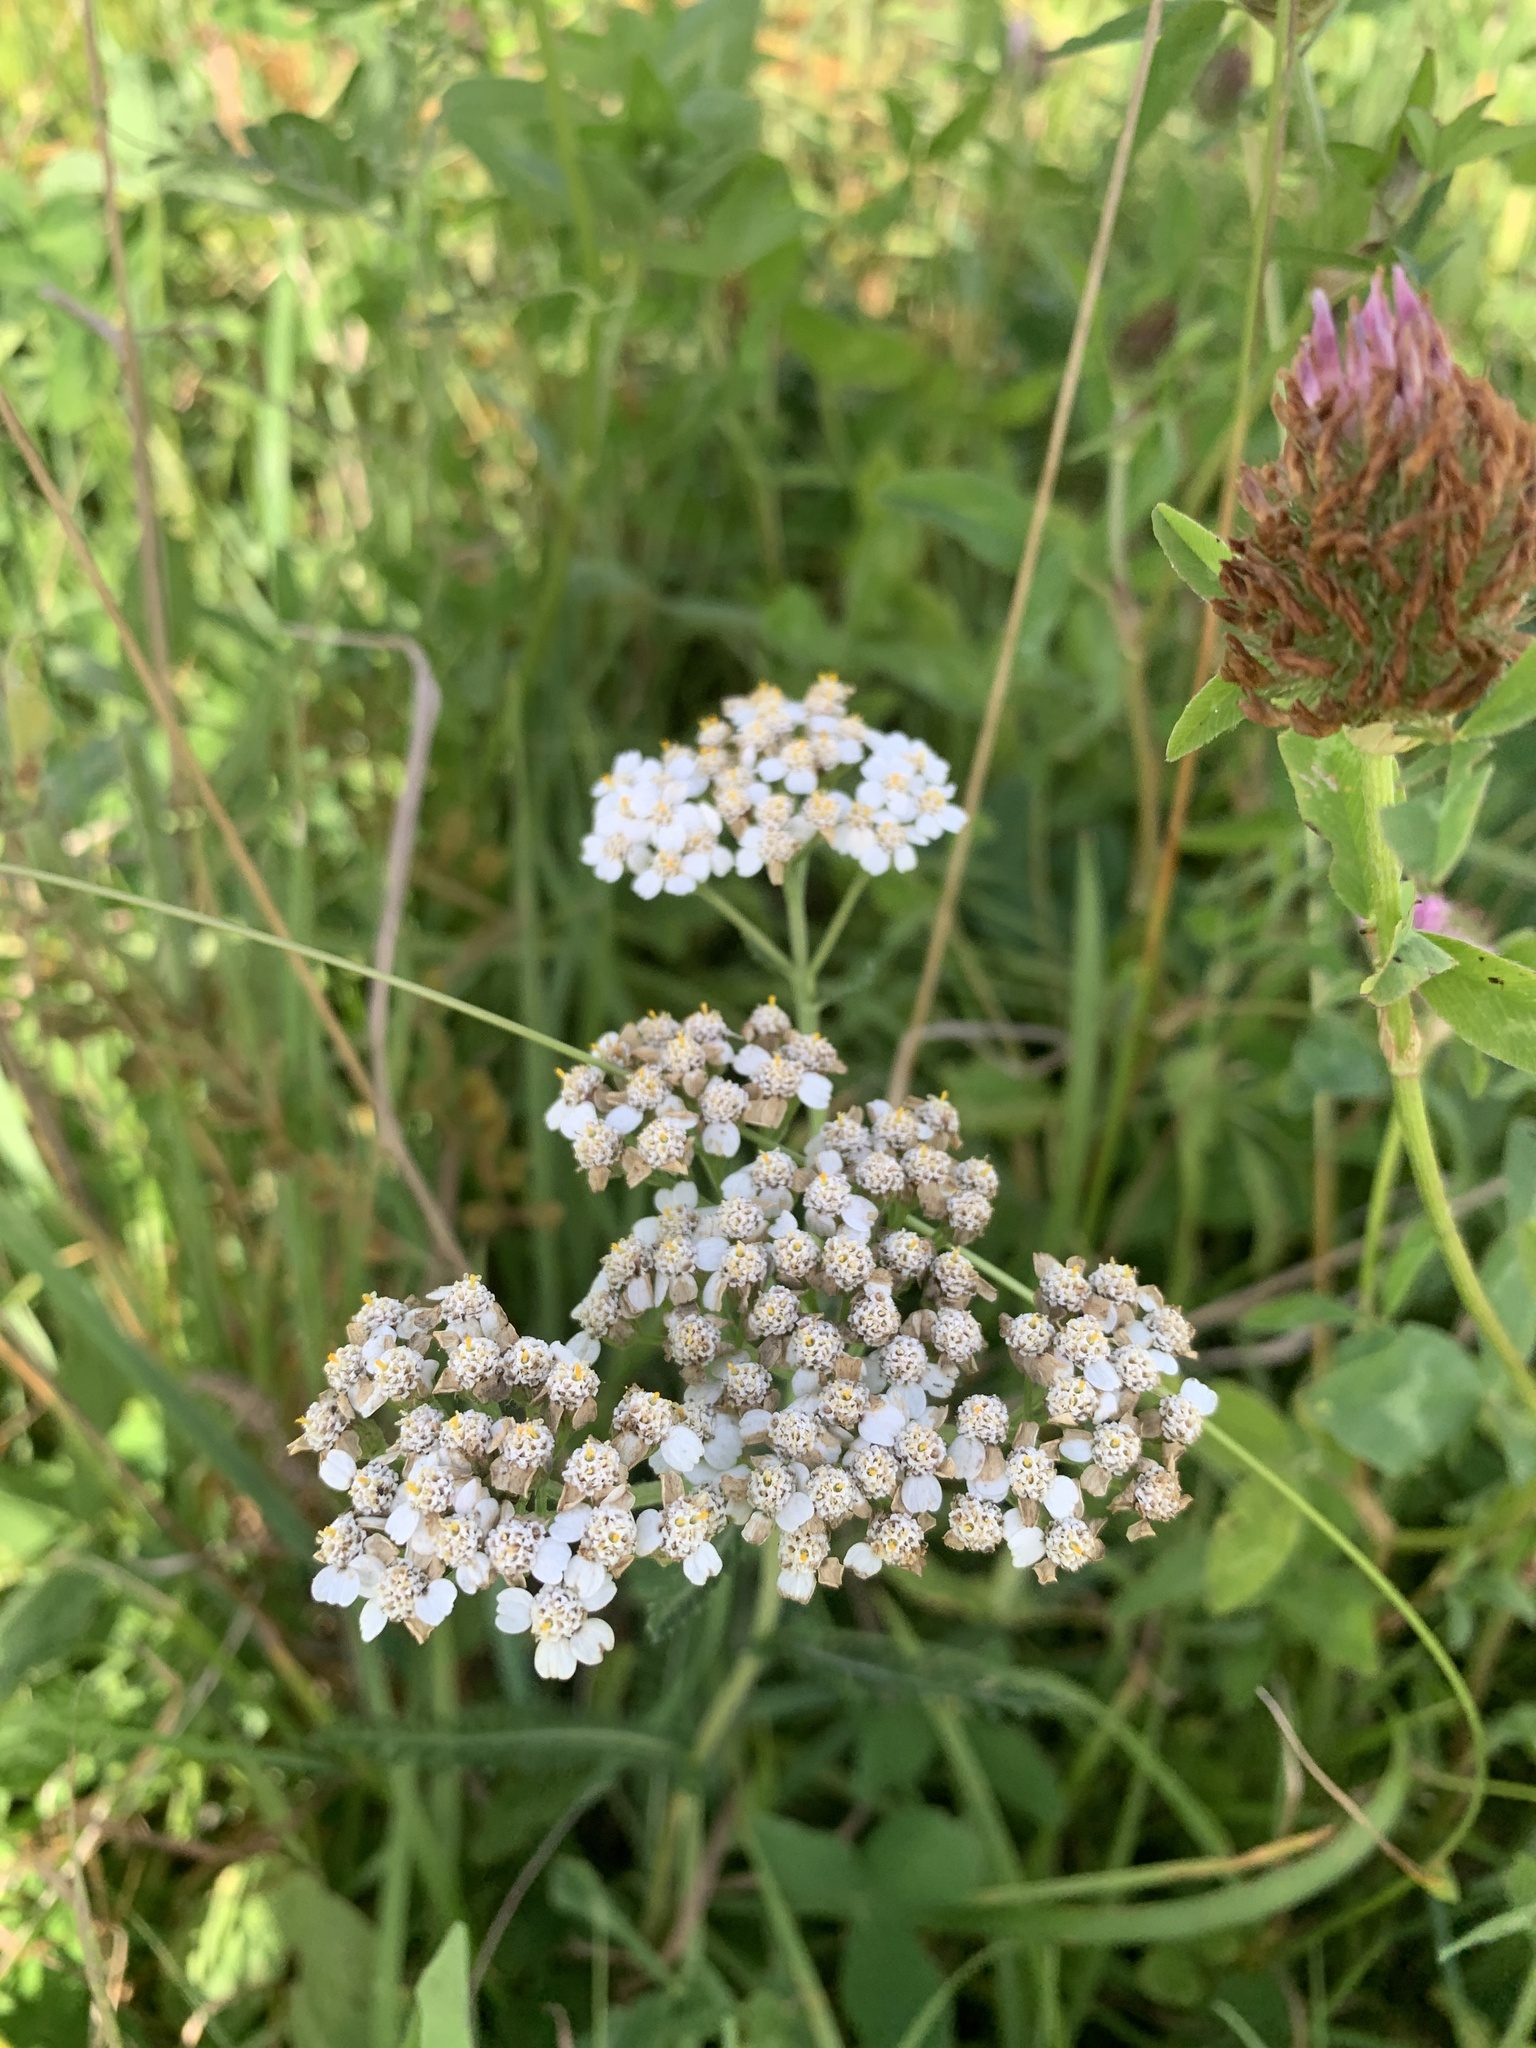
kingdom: Plantae
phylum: Tracheophyta
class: Magnoliopsida
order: Asterales
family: Asteraceae
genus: Achillea
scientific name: Achillea millefolium
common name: Yarrow
